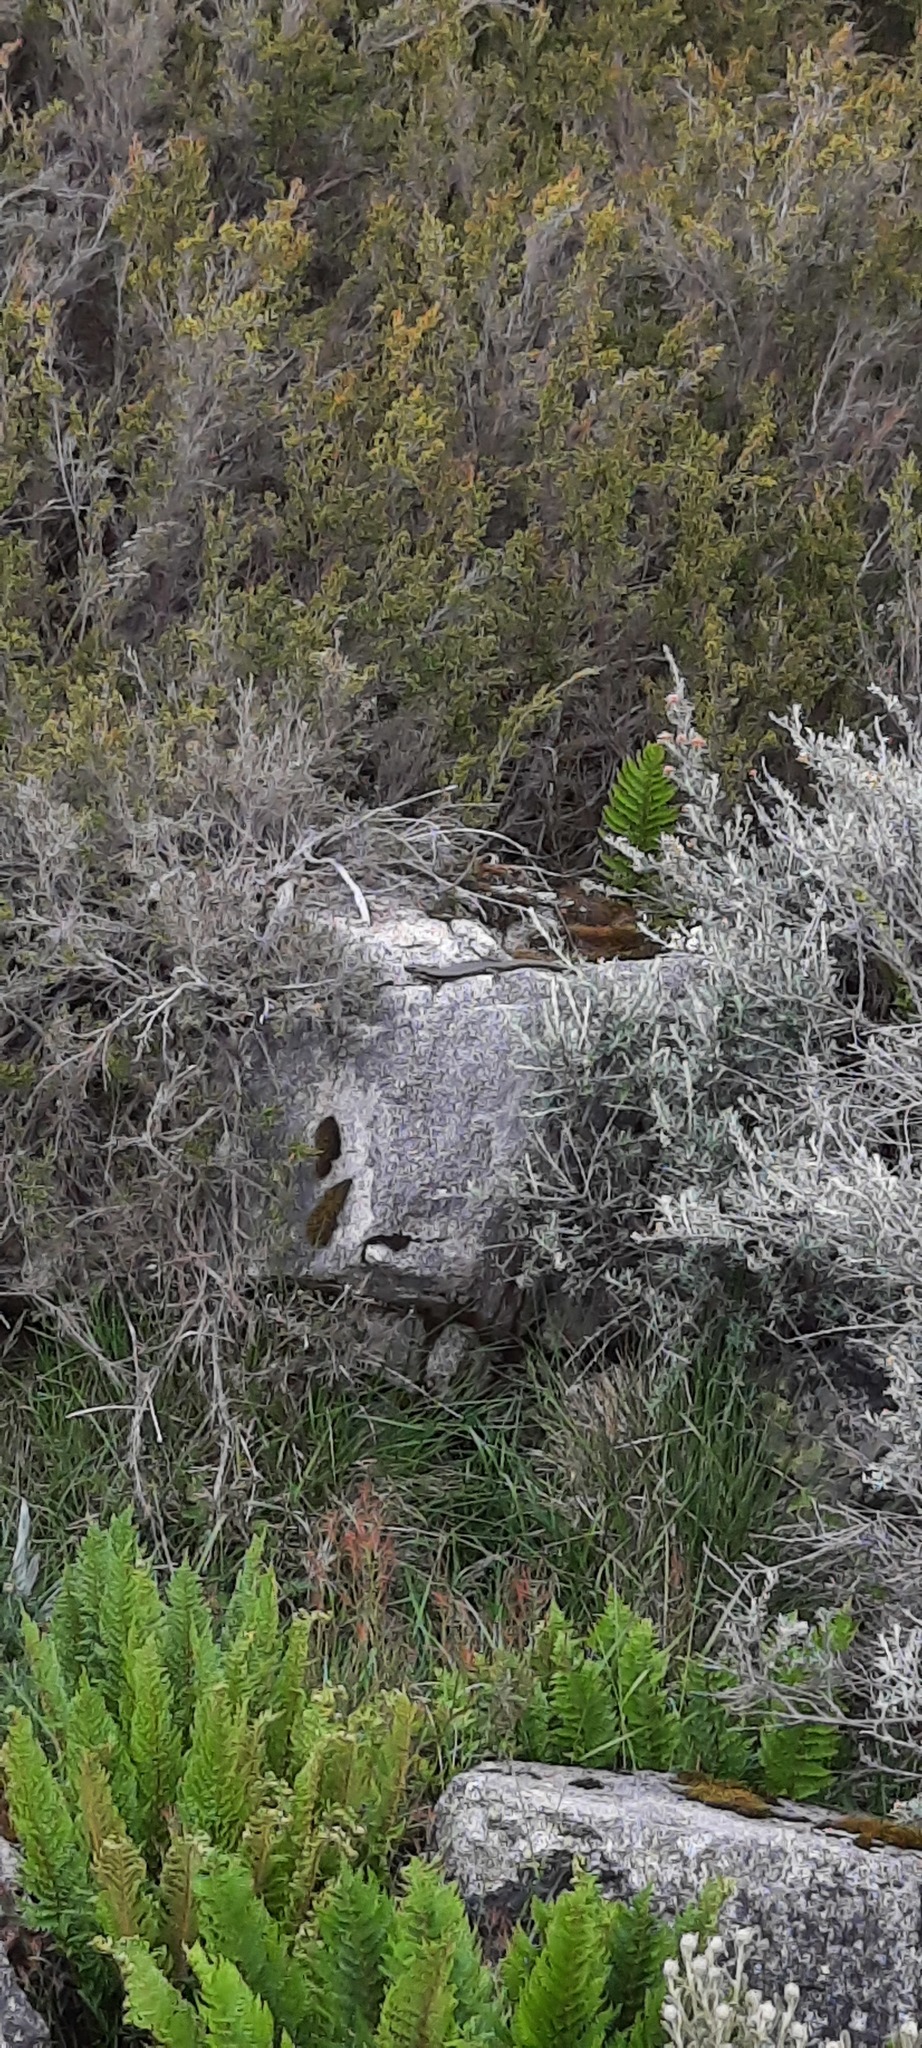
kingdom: Animalia
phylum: Chordata
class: Squamata
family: Scincidae
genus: Eulamprus
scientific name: Eulamprus tympanum
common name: Cool-temperate water-skink
